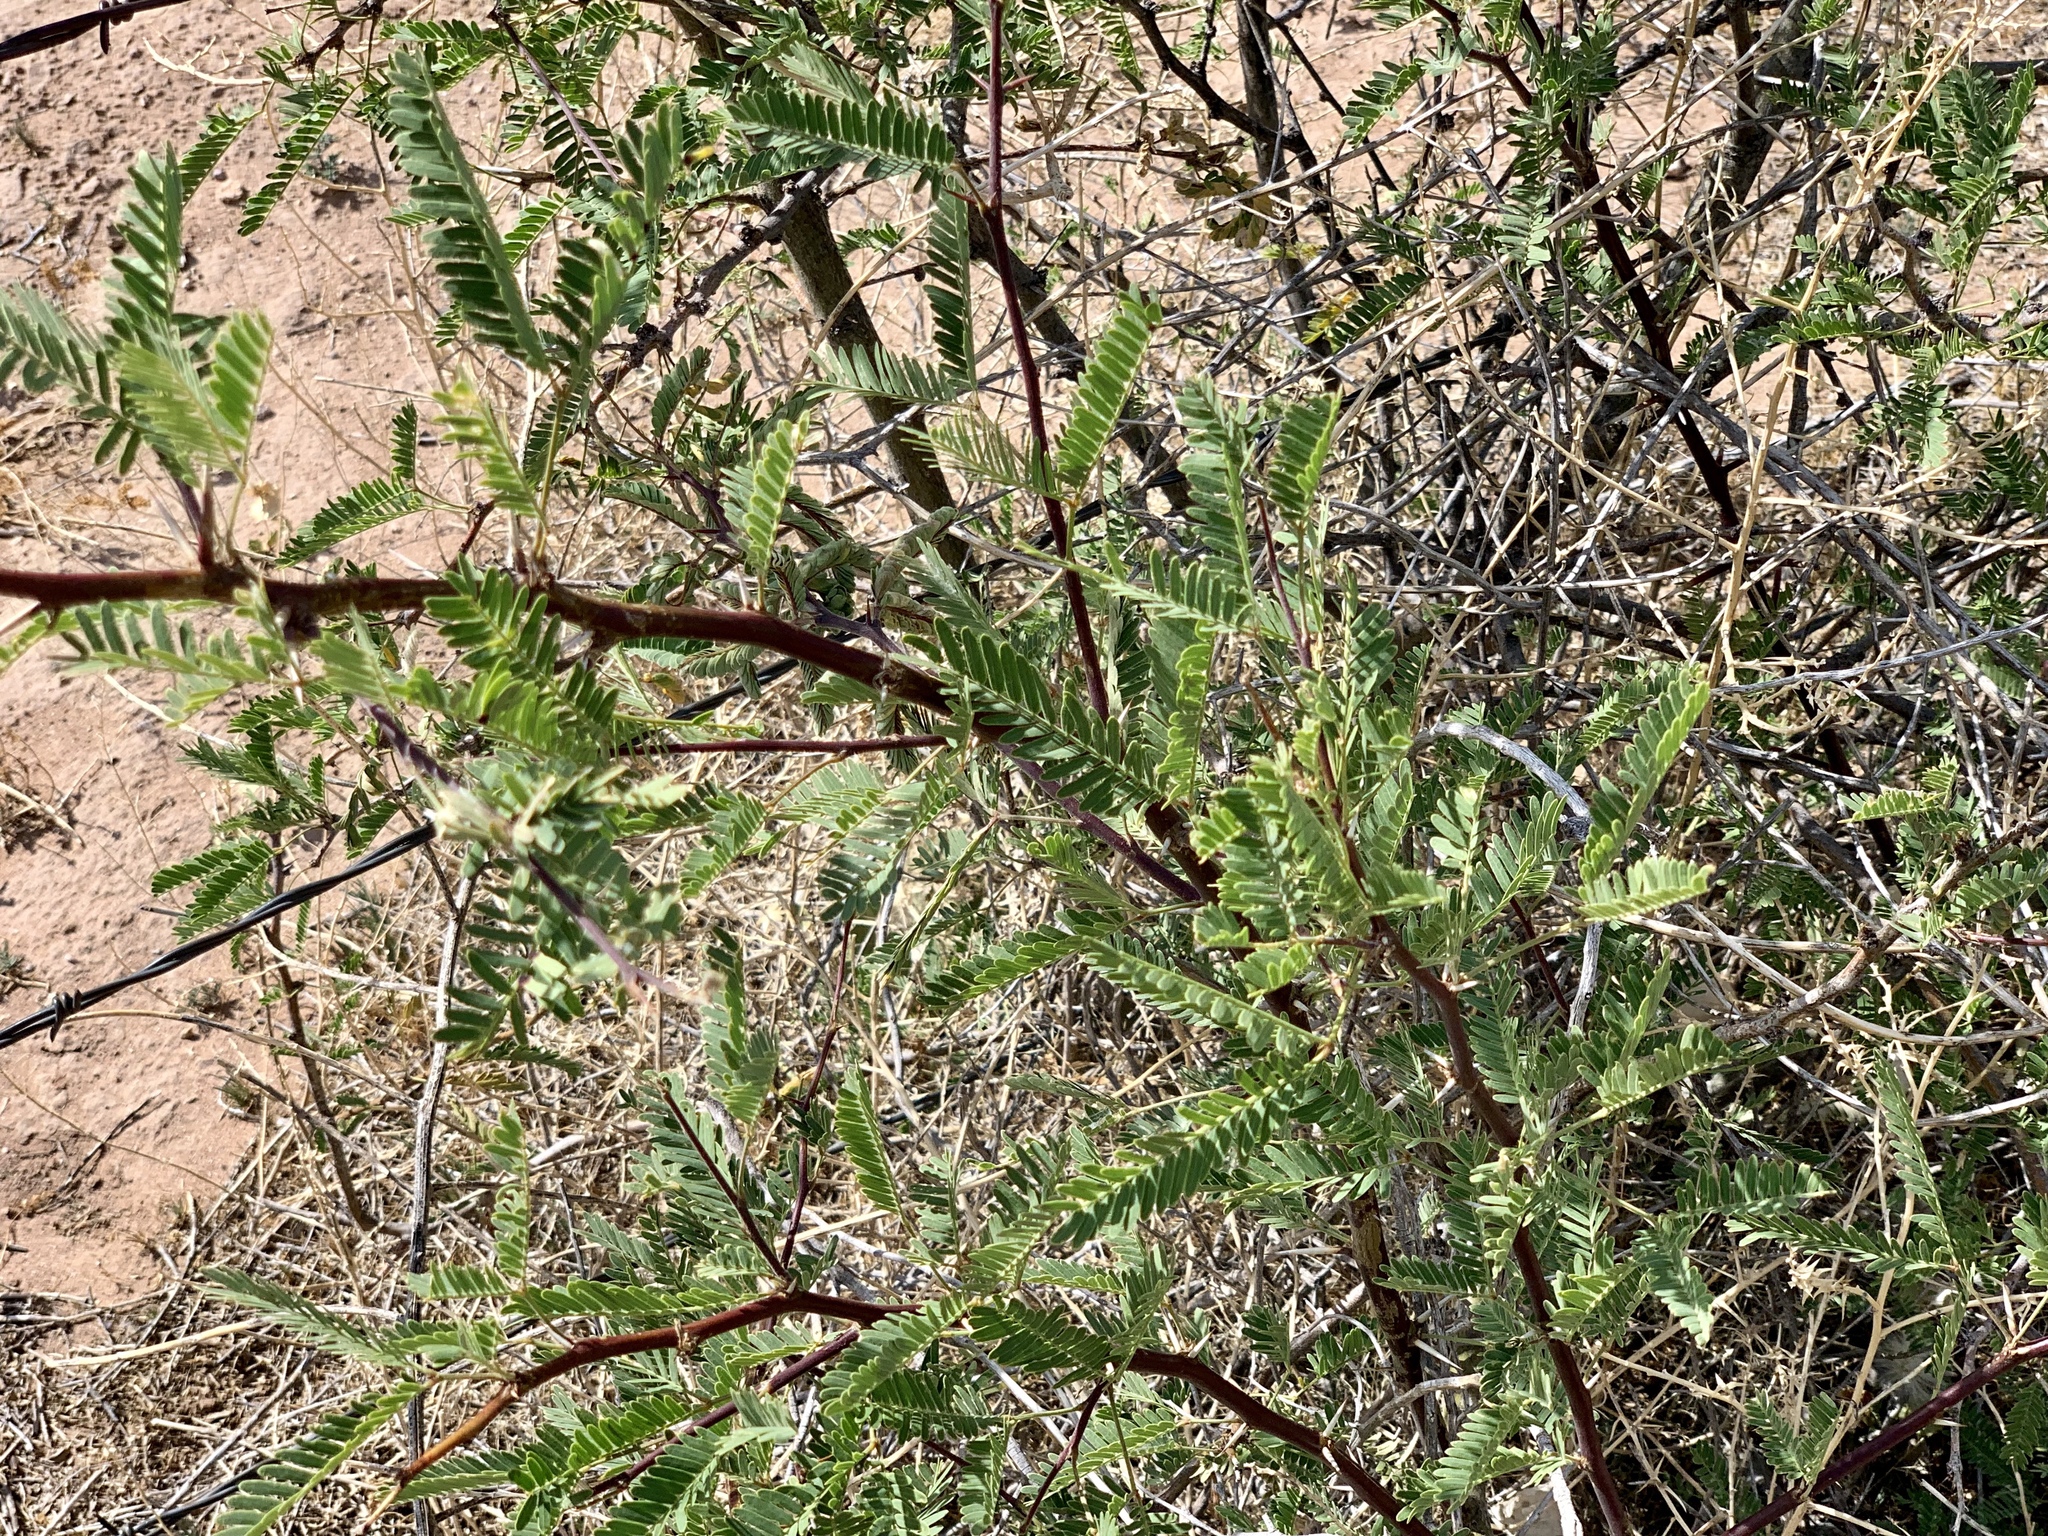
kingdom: Plantae
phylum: Tracheophyta
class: Magnoliopsida
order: Fabales
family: Fabaceae
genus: Prosopis
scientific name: Prosopis velutina
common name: Velvet mesquite
